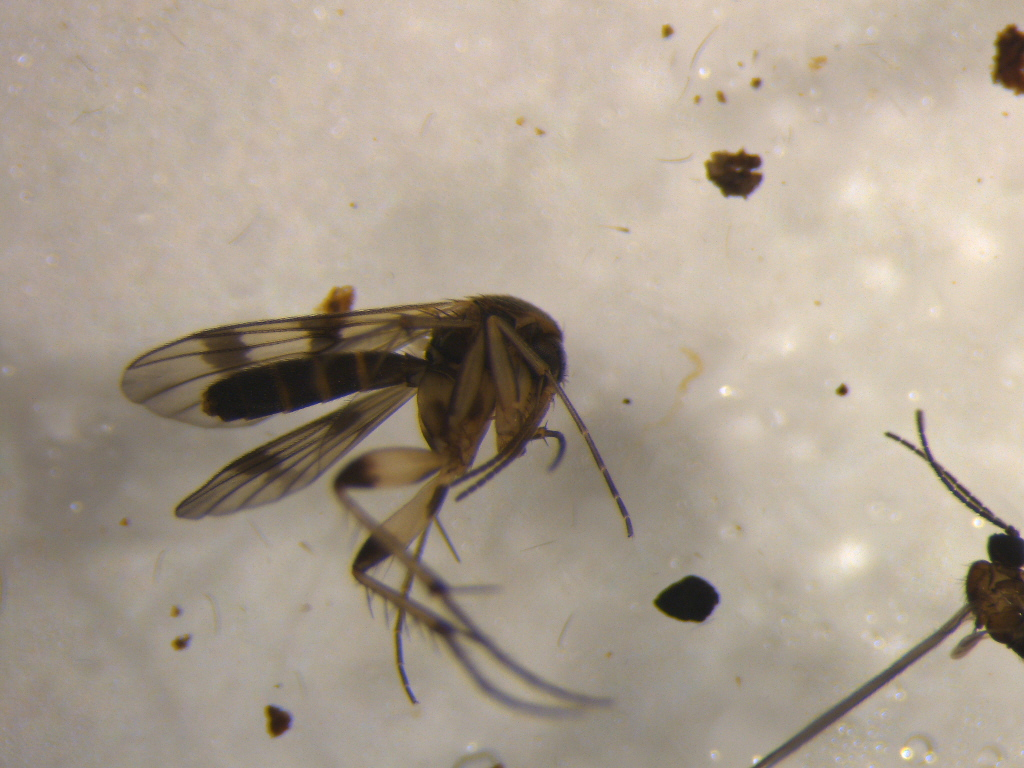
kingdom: Animalia
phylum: Arthropoda
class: Insecta
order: Diptera
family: Mycetophilidae
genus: Mycetophila
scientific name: Mycetophila marshalli
